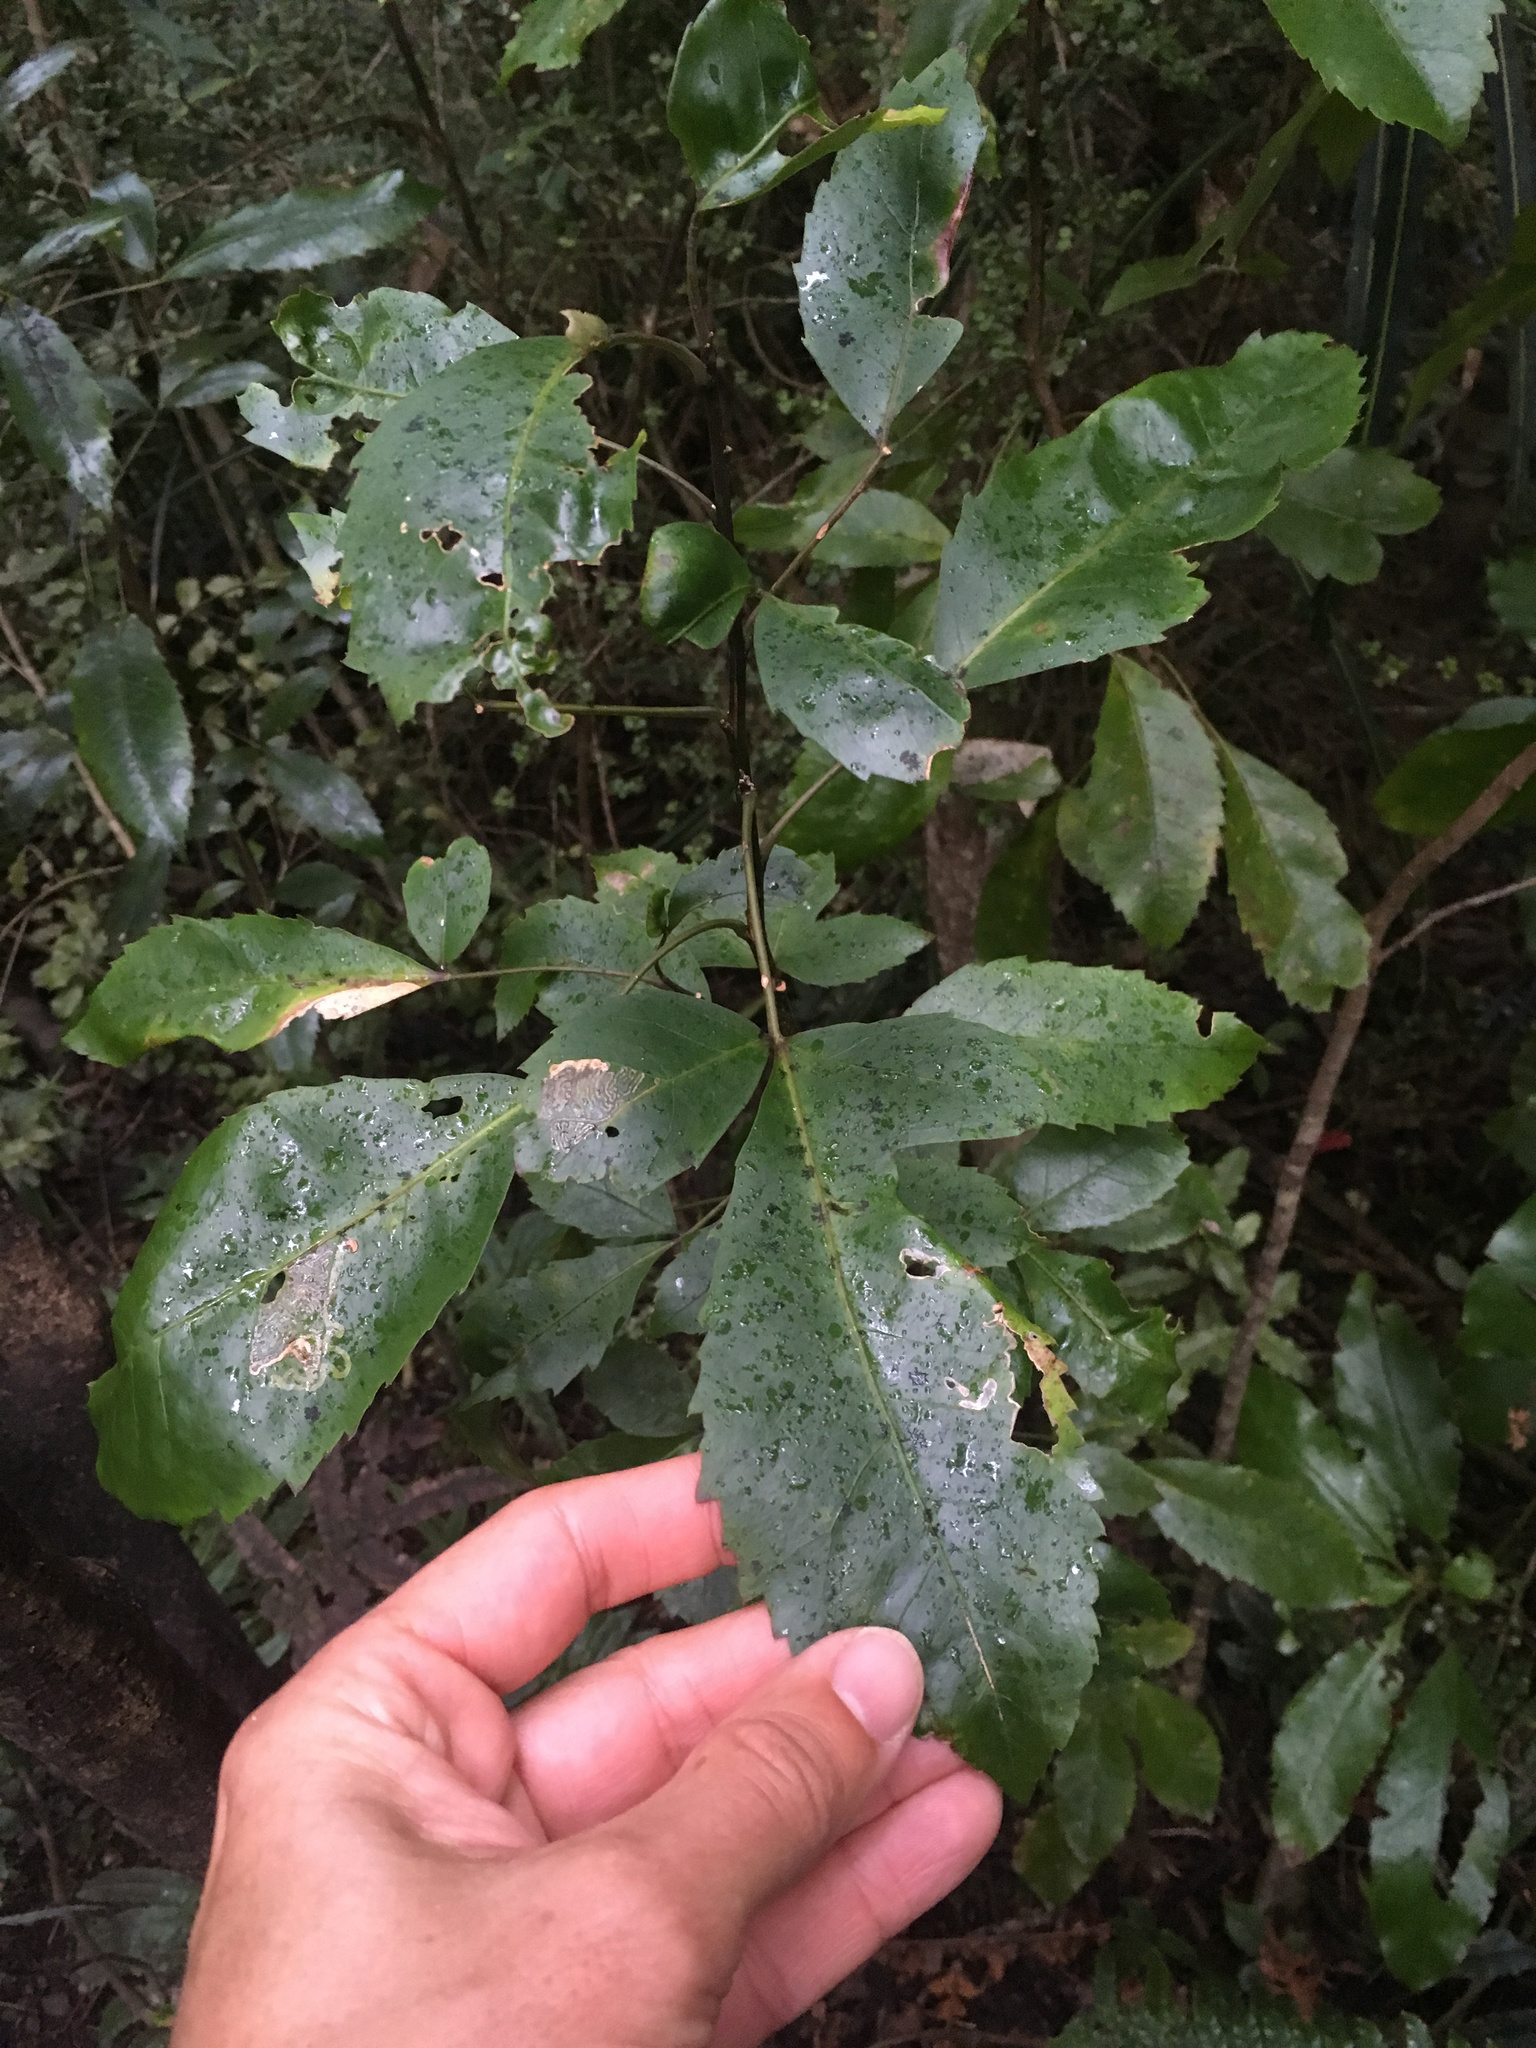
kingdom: Plantae
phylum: Tracheophyta
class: Magnoliopsida
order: Apiales
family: Araliaceae
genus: Raukaua
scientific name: Raukaua simplex
